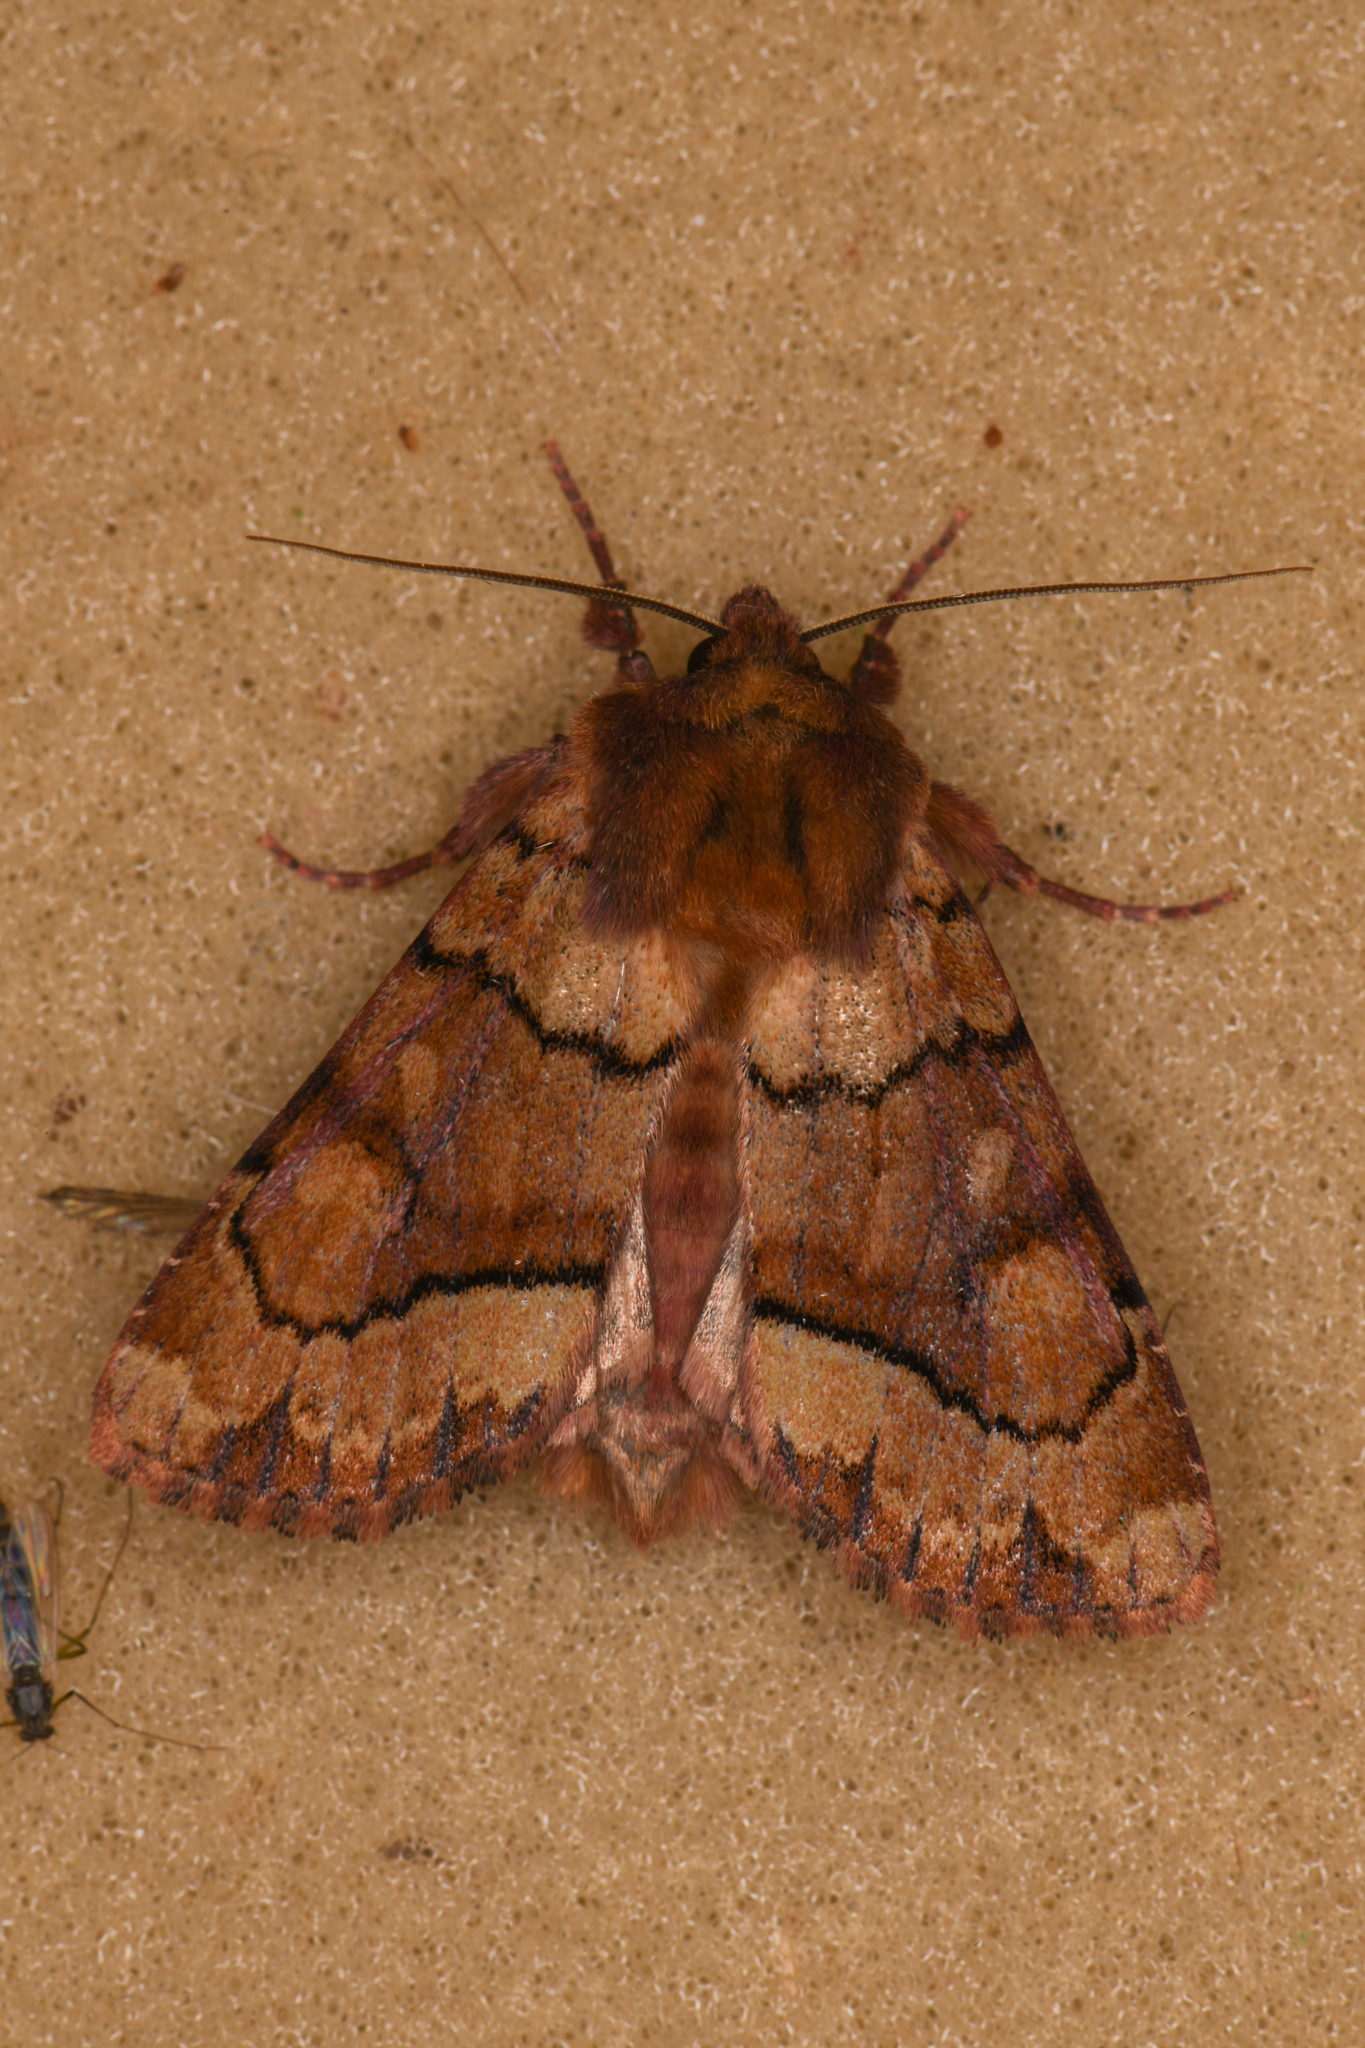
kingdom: Animalia
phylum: Arthropoda
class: Insecta
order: Lepidoptera
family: Noctuidae
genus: Apamea
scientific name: Apamea contradicta
